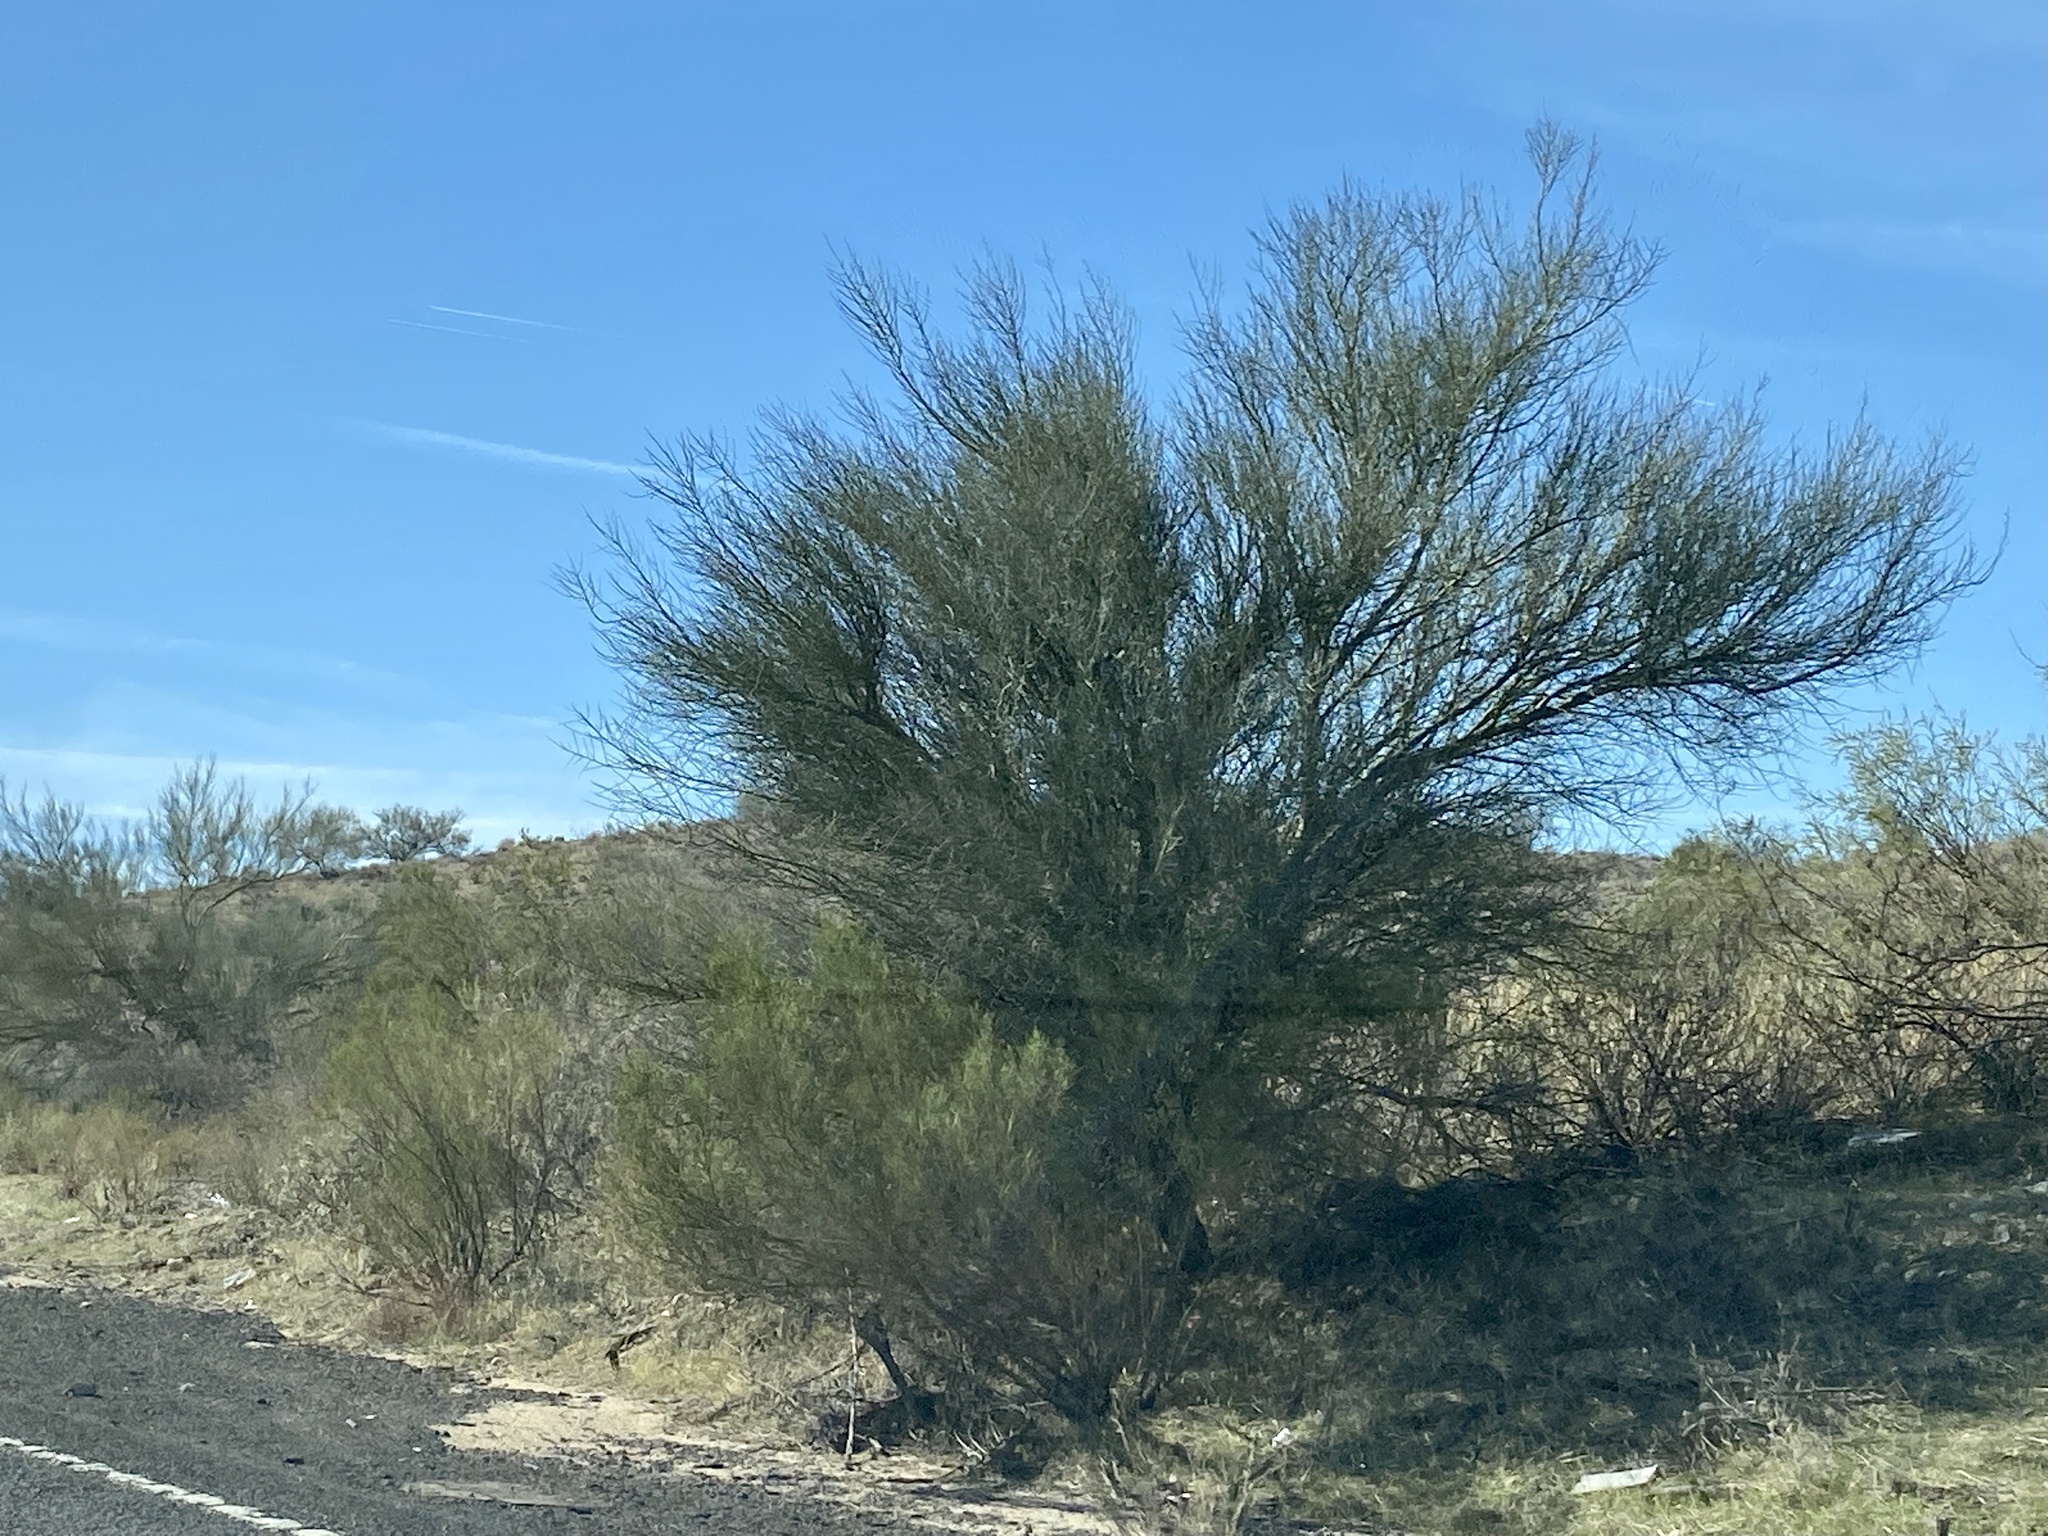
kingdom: Plantae
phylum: Tracheophyta
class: Magnoliopsida
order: Celastrales
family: Celastraceae
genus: Canotia
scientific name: Canotia holacantha
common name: Crucifixion thorns
